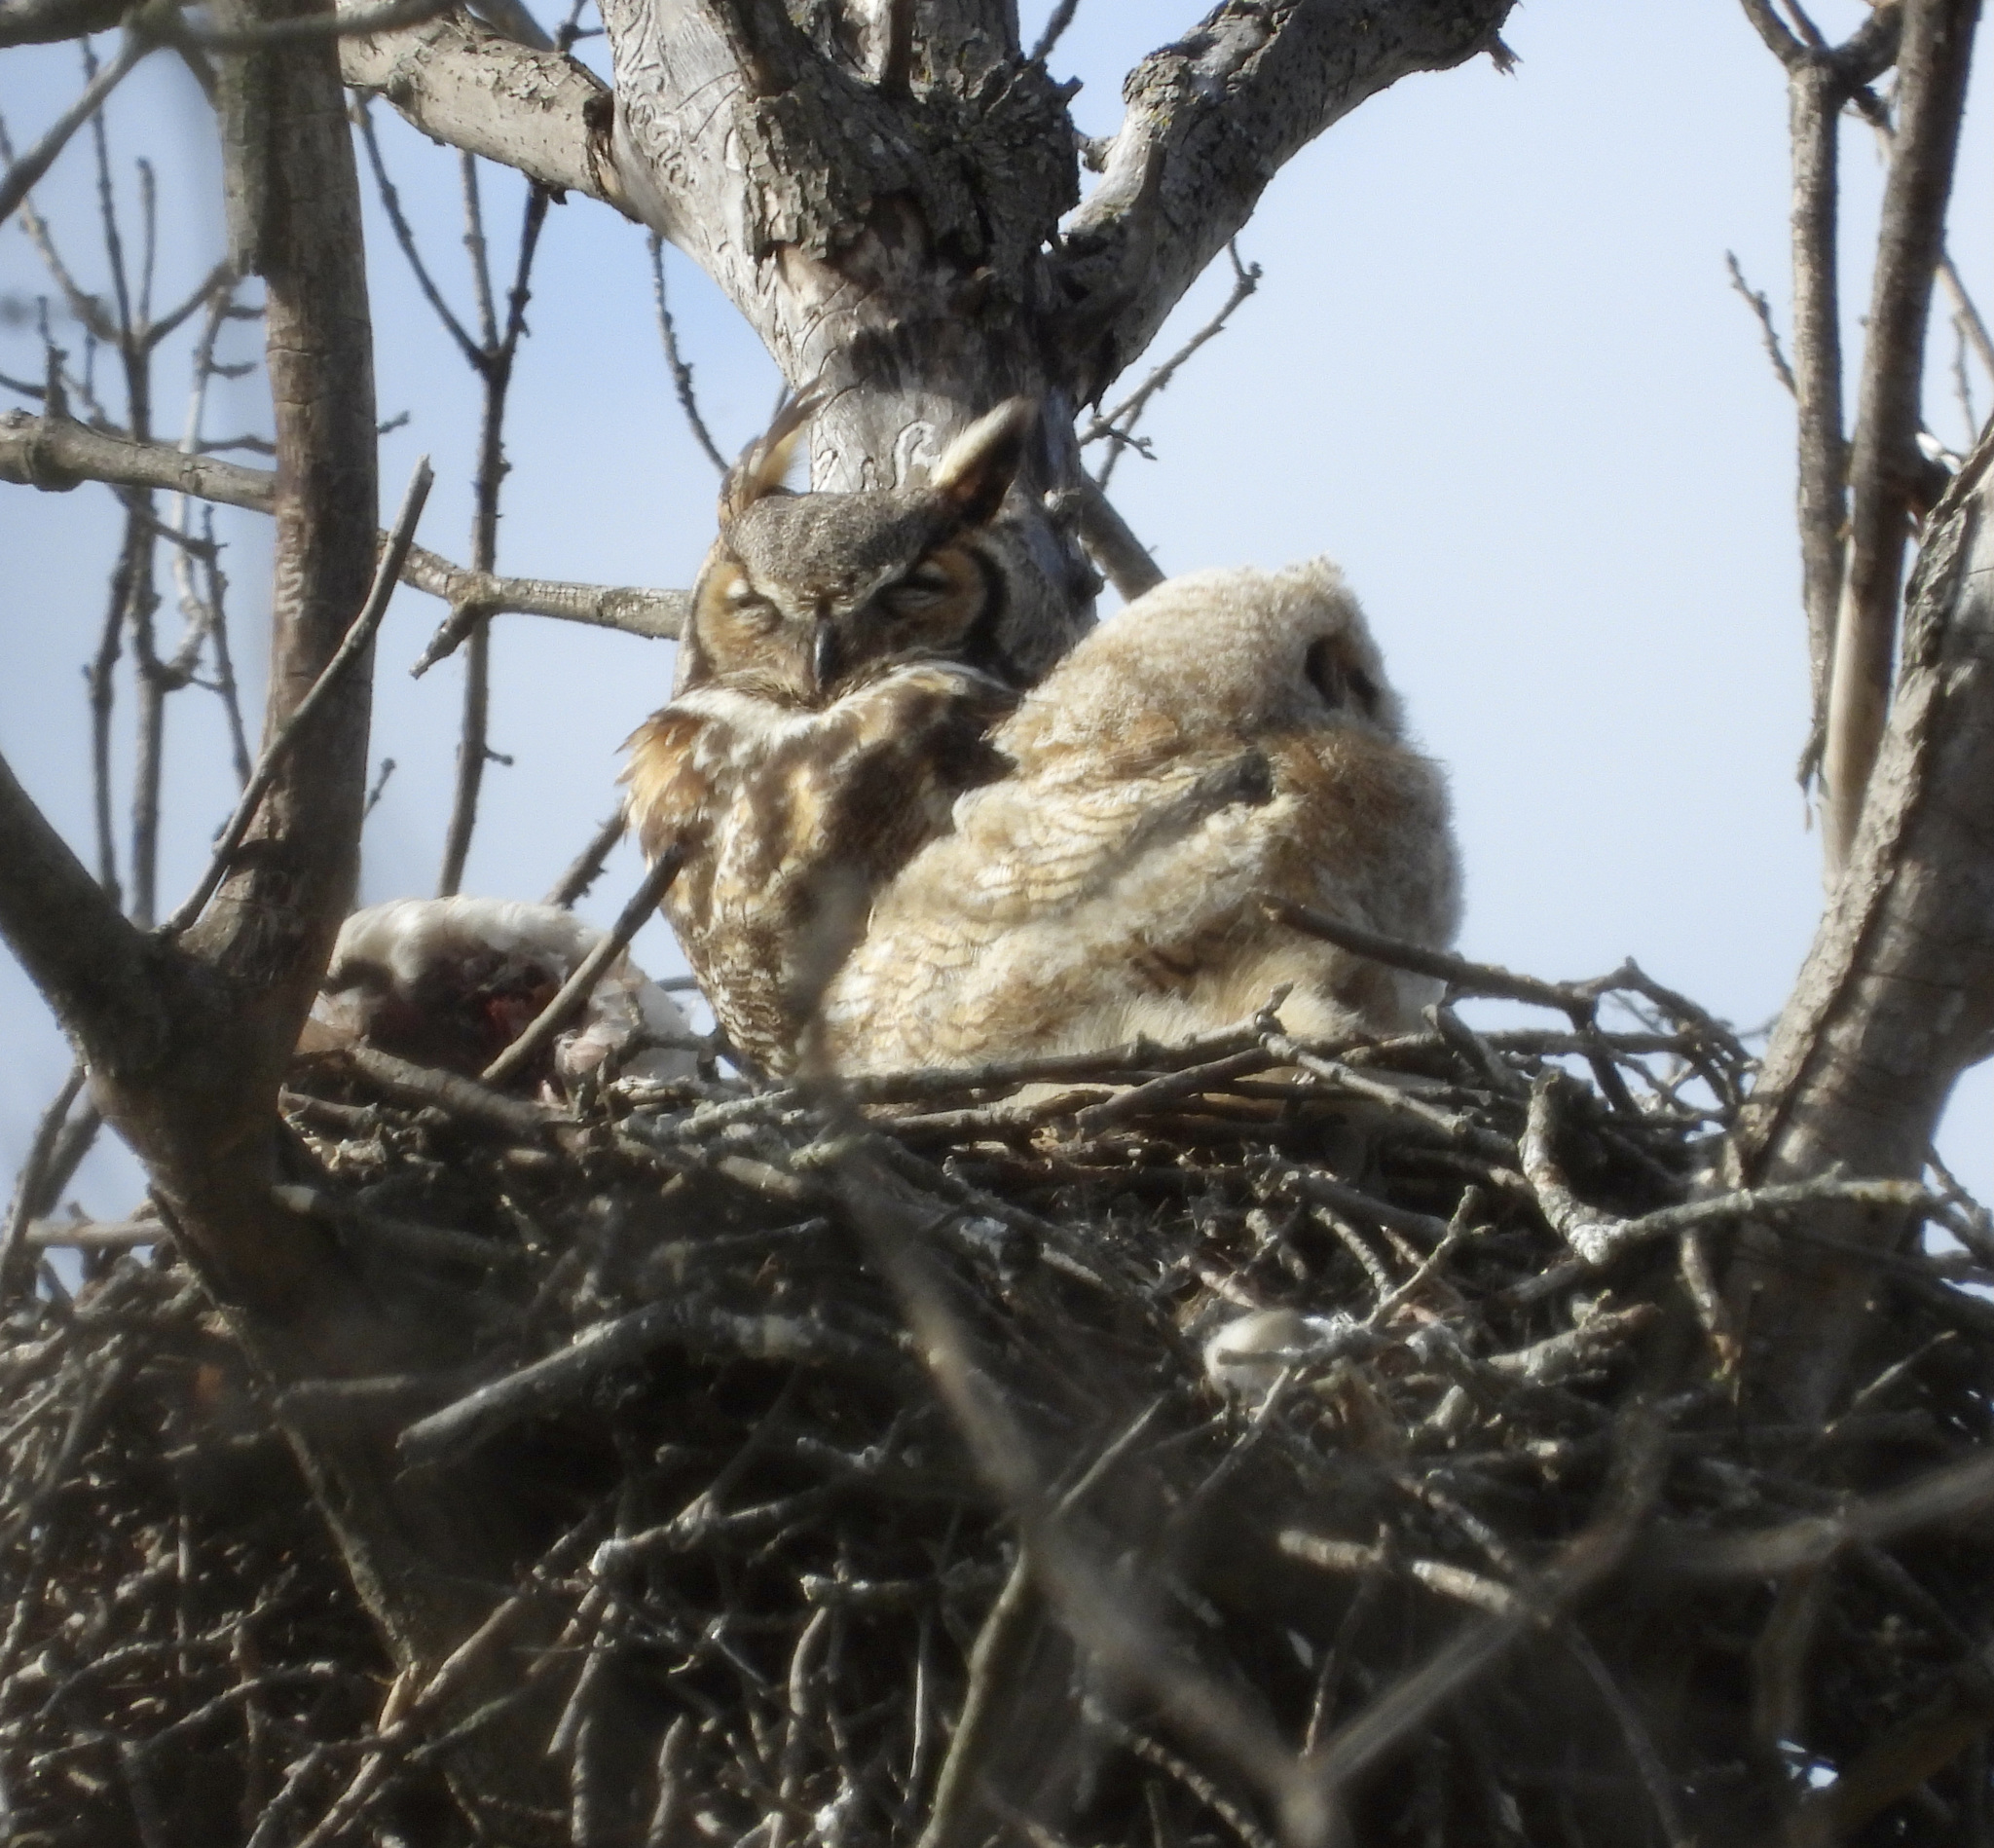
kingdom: Animalia
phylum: Chordata
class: Aves
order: Strigiformes
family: Strigidae
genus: Bubo
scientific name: Bubo virginianus
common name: Great horned owl
